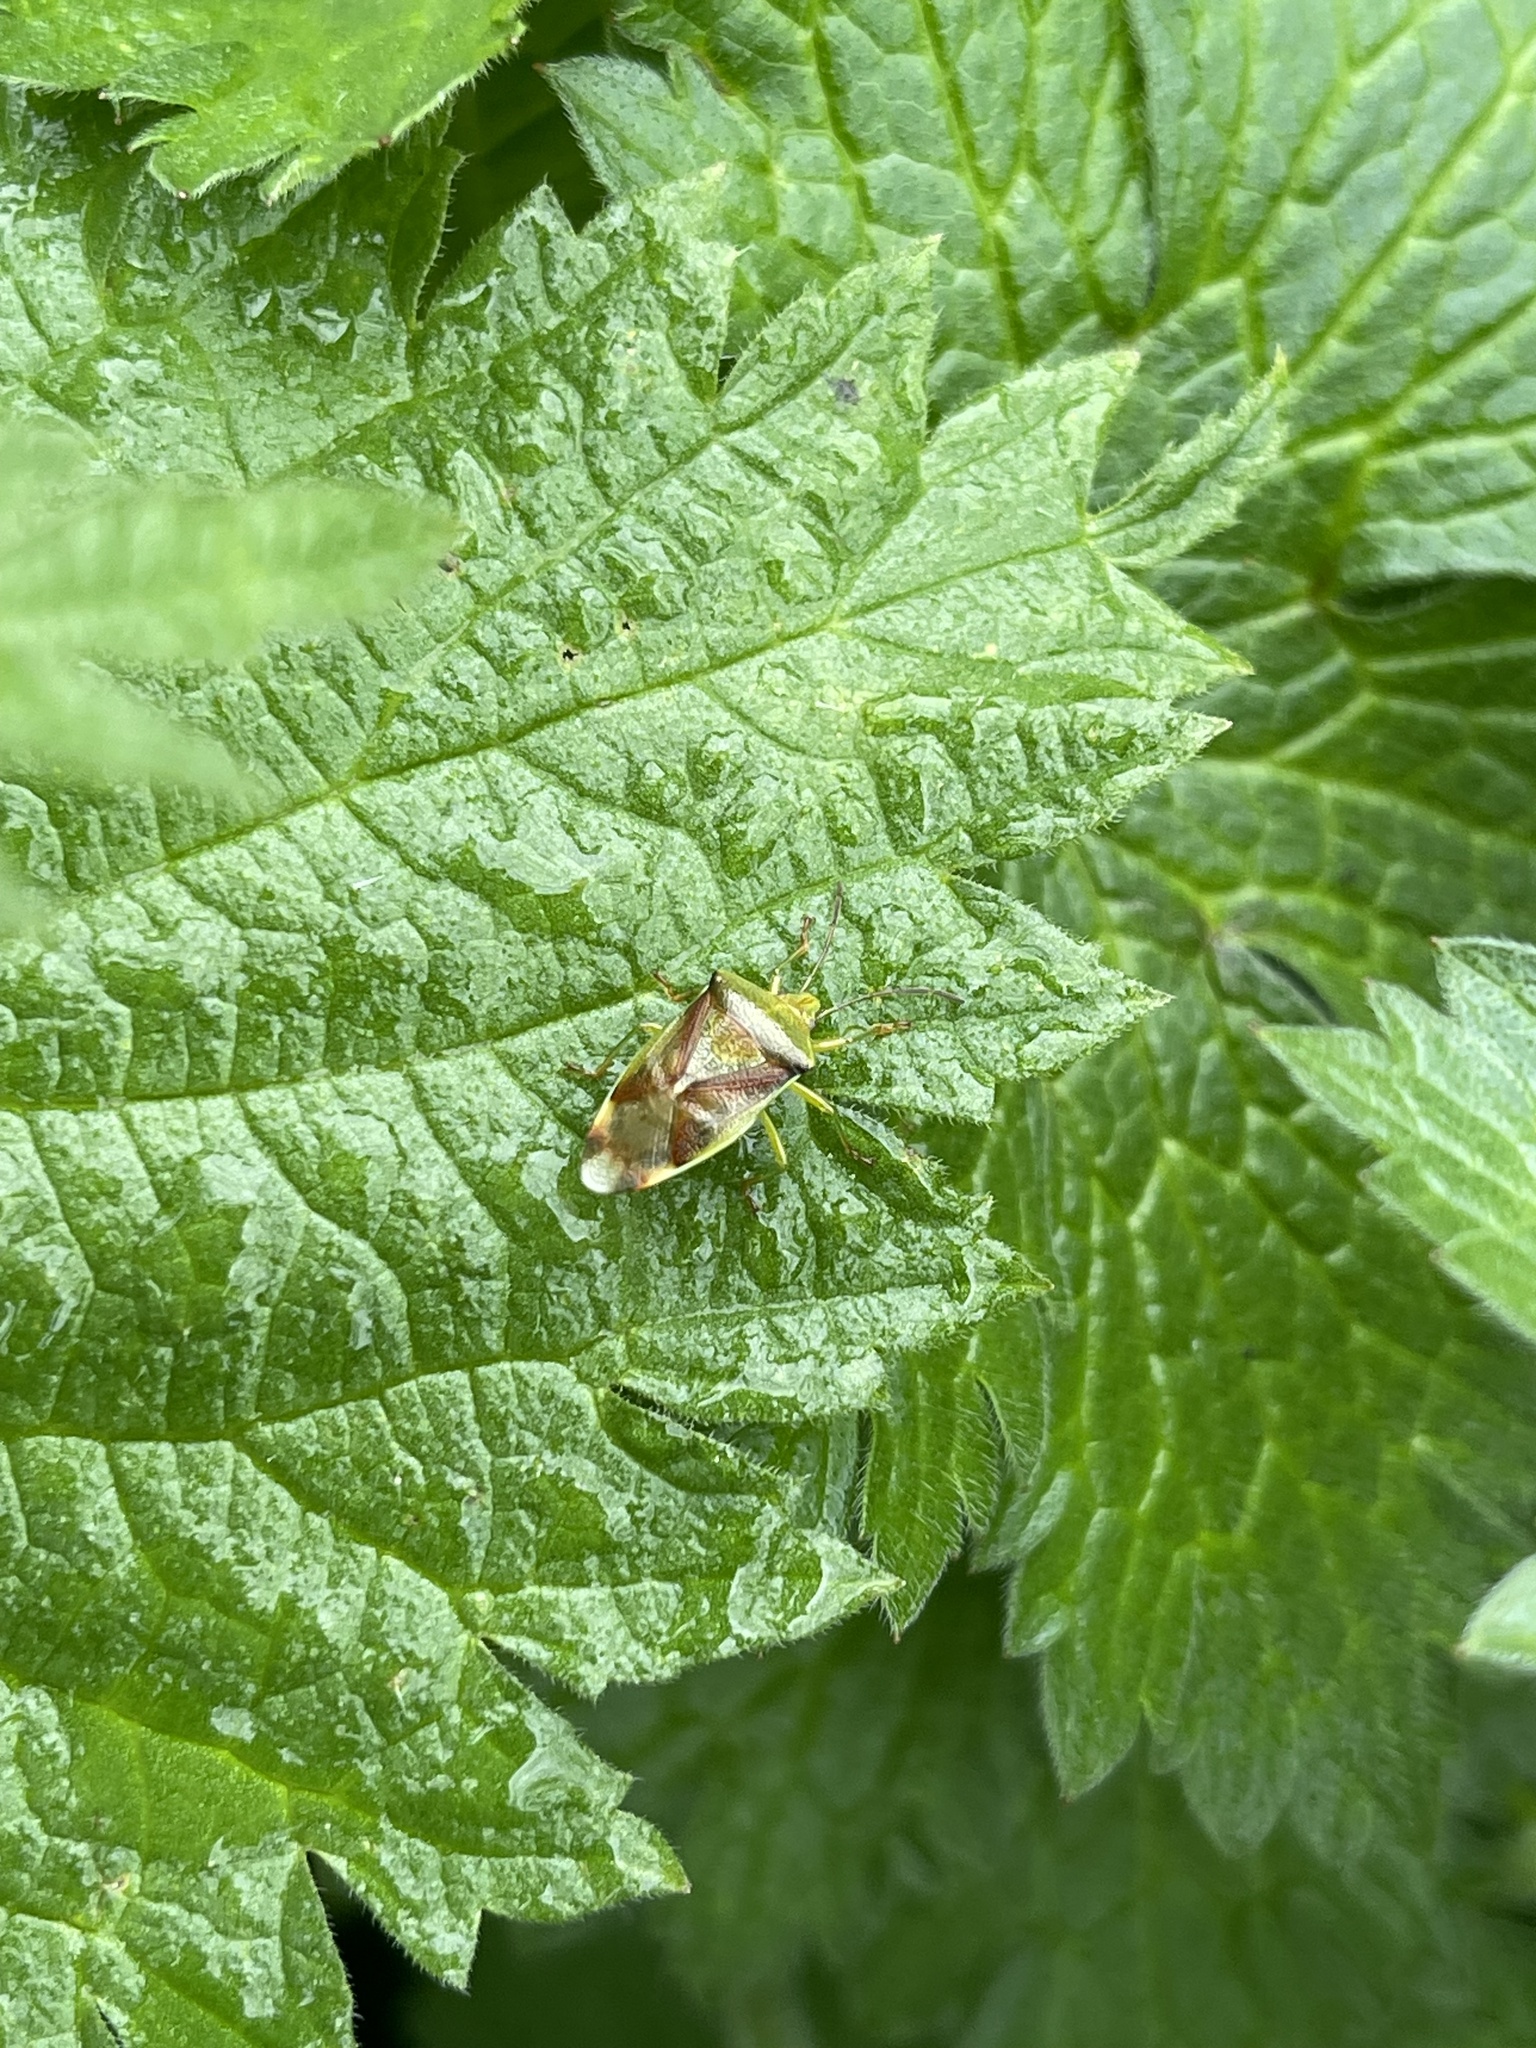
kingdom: Animalia
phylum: Arthropoda
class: Insecta
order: Hemiptera
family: Acanthosomatidae
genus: Elasmostethus
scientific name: Elasmostethus interstinctus
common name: Birch shieldbug
